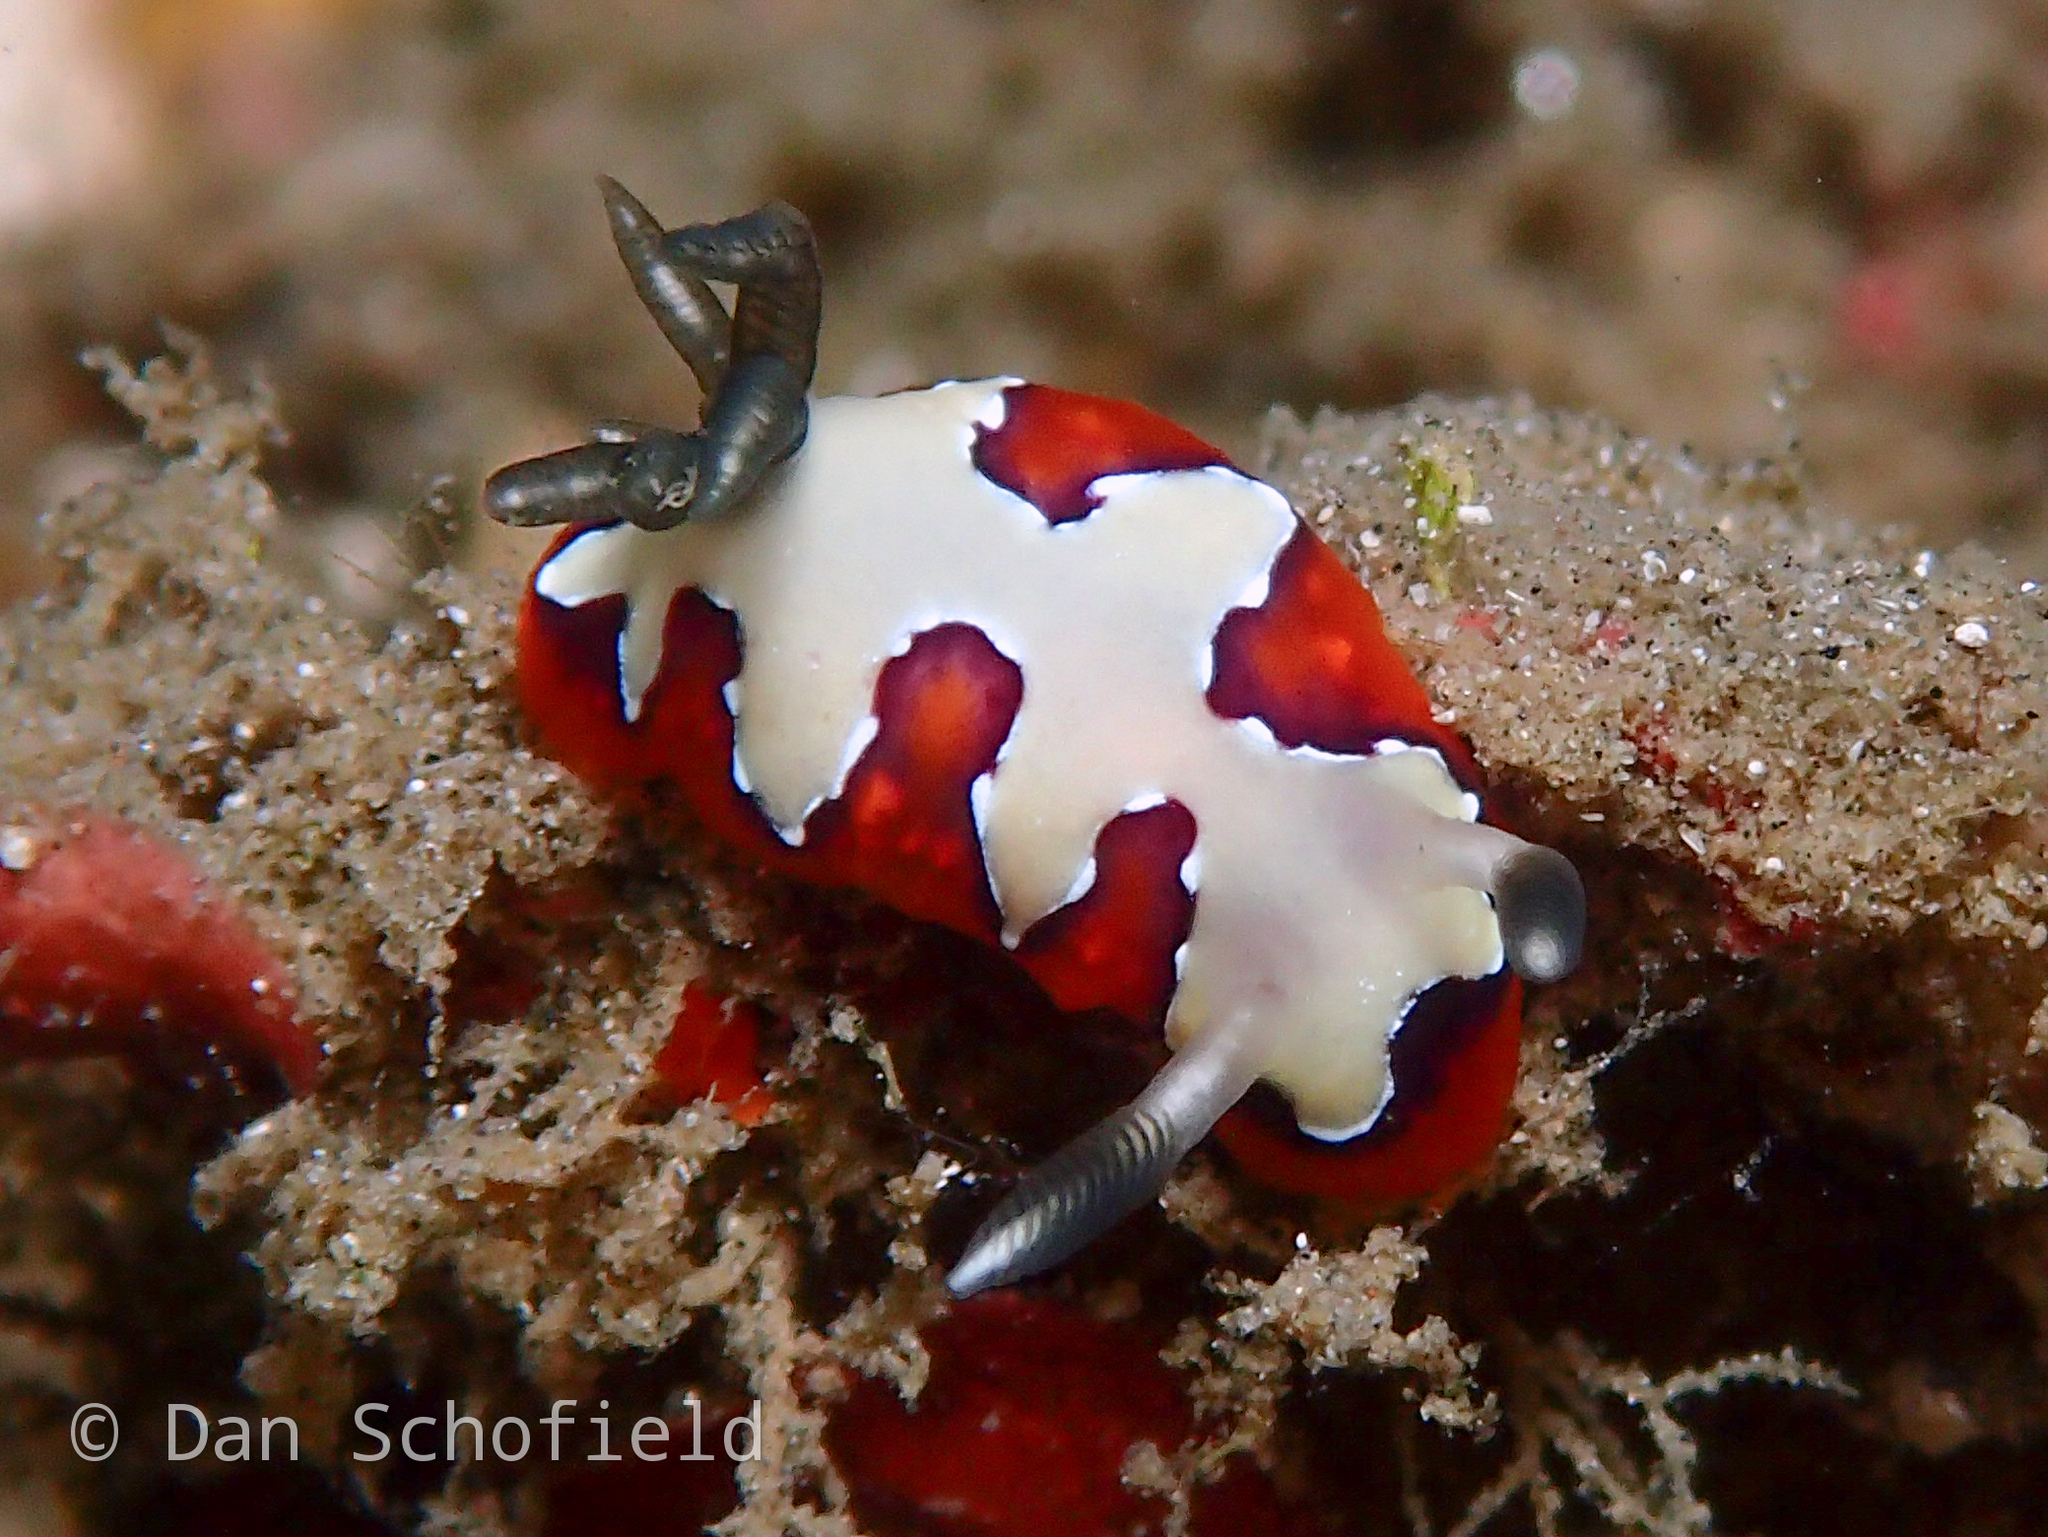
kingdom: Animalia
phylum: Mollusca
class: Gastropoda
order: Nudibranchia
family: Chromodorididae
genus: Goniobranchus
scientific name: Goniobranchus fidelis
